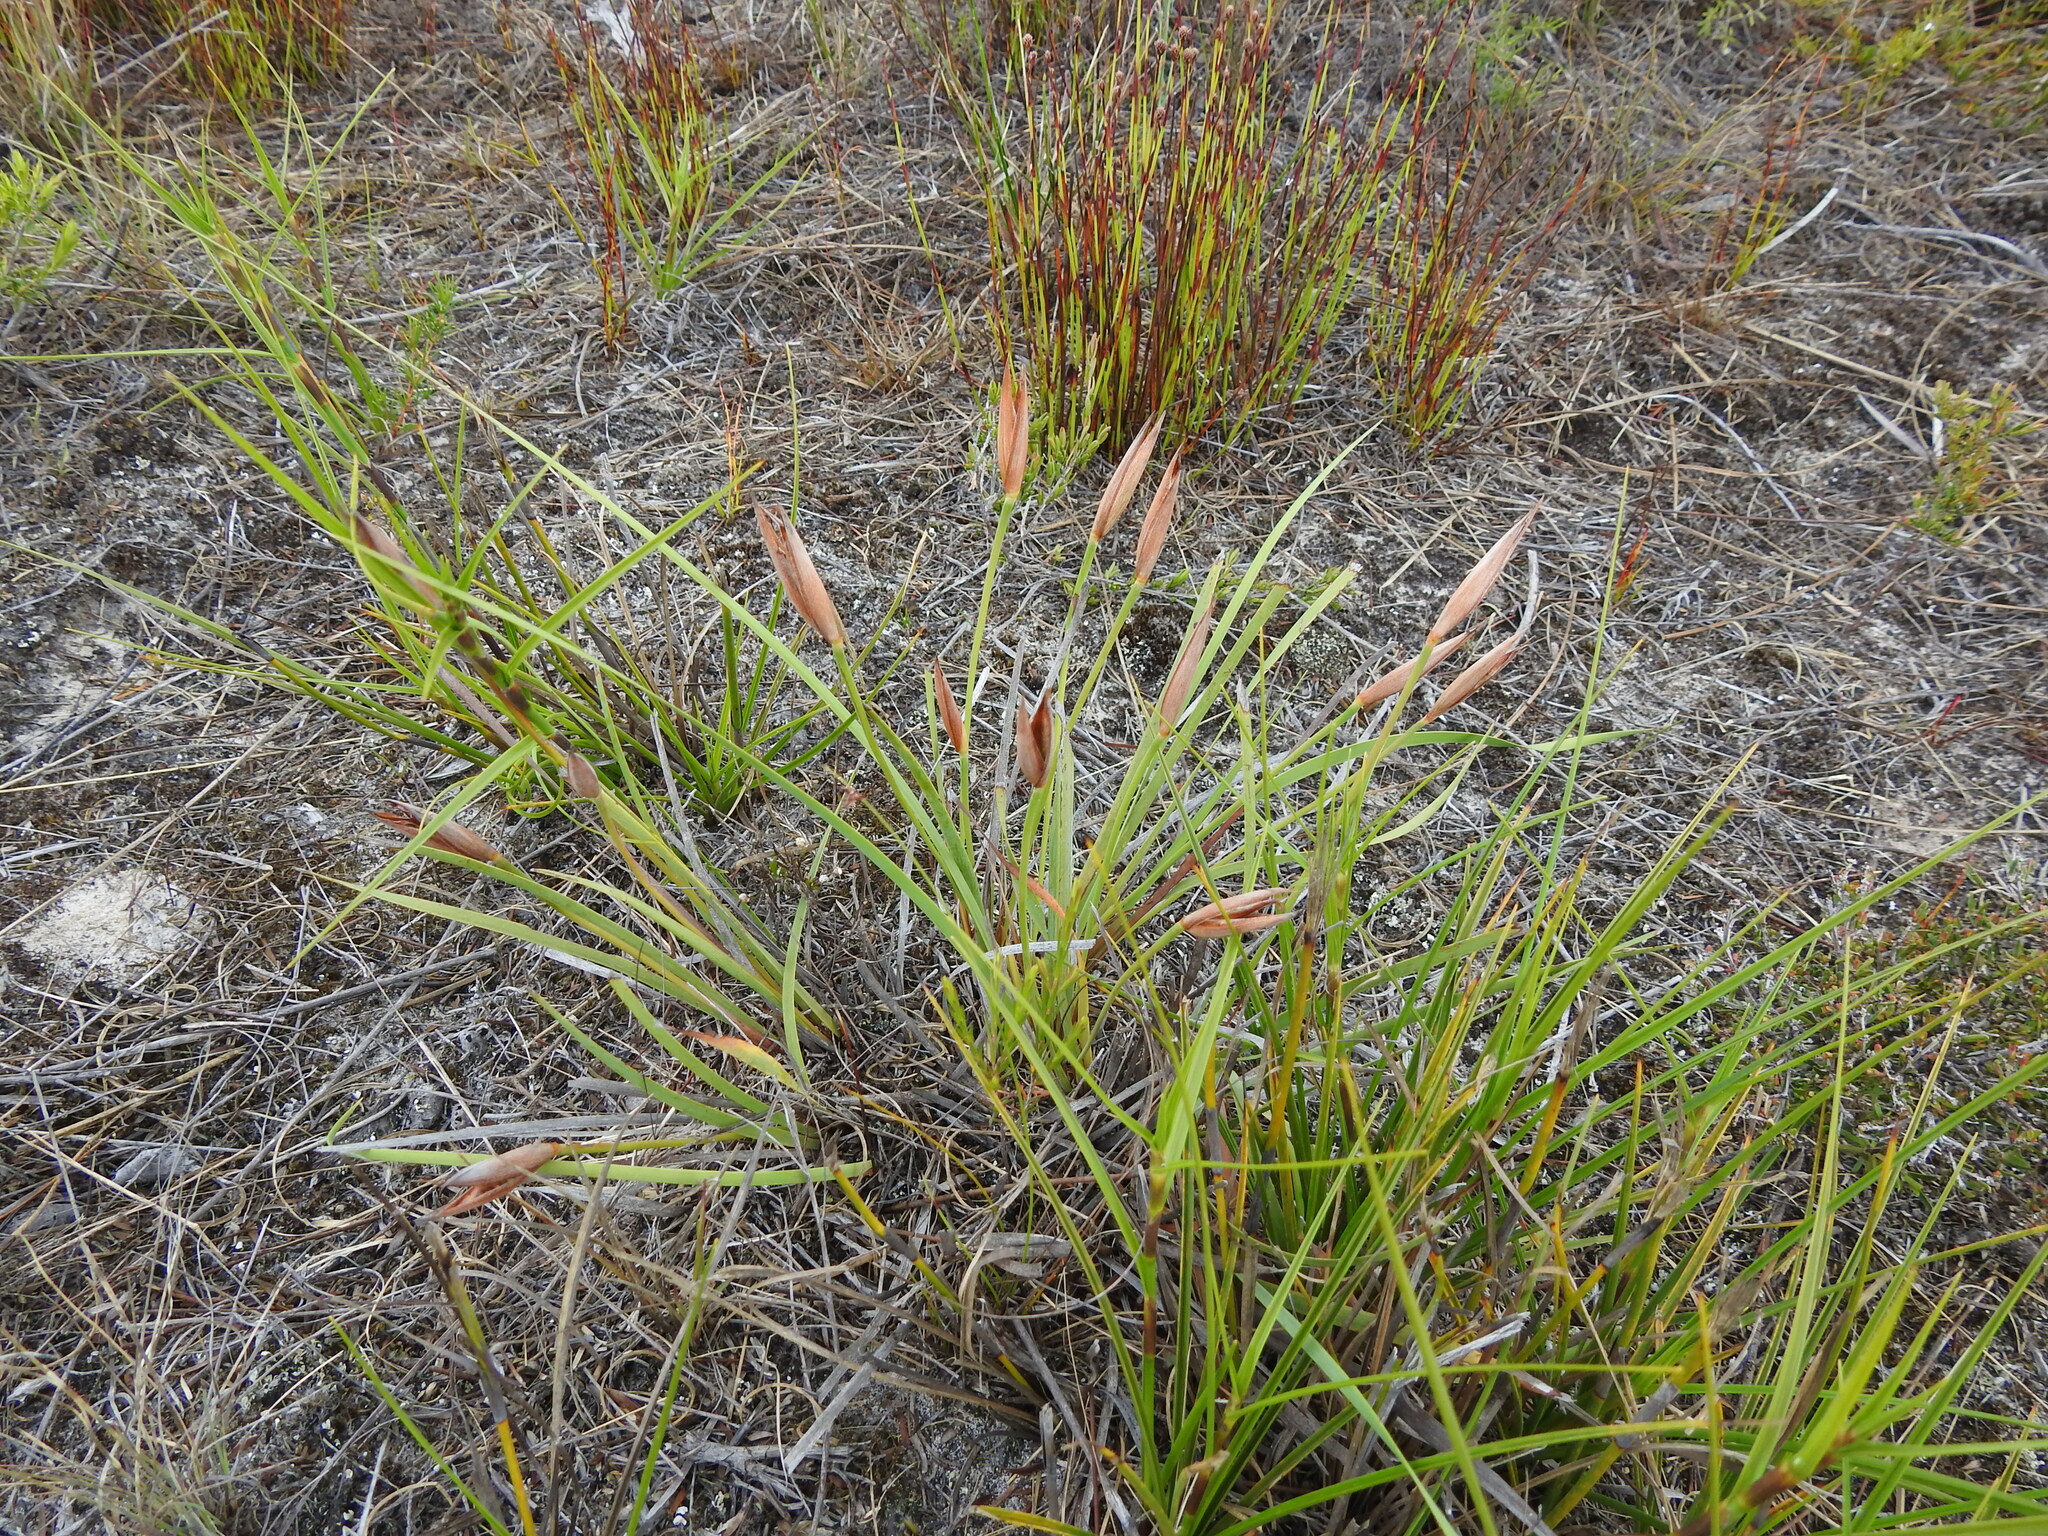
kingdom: Plantae
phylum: Tracheophyta
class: Liliopsida
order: Asparagales
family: Iridaceae
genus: Patersonia
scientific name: Patersonia fragilis
